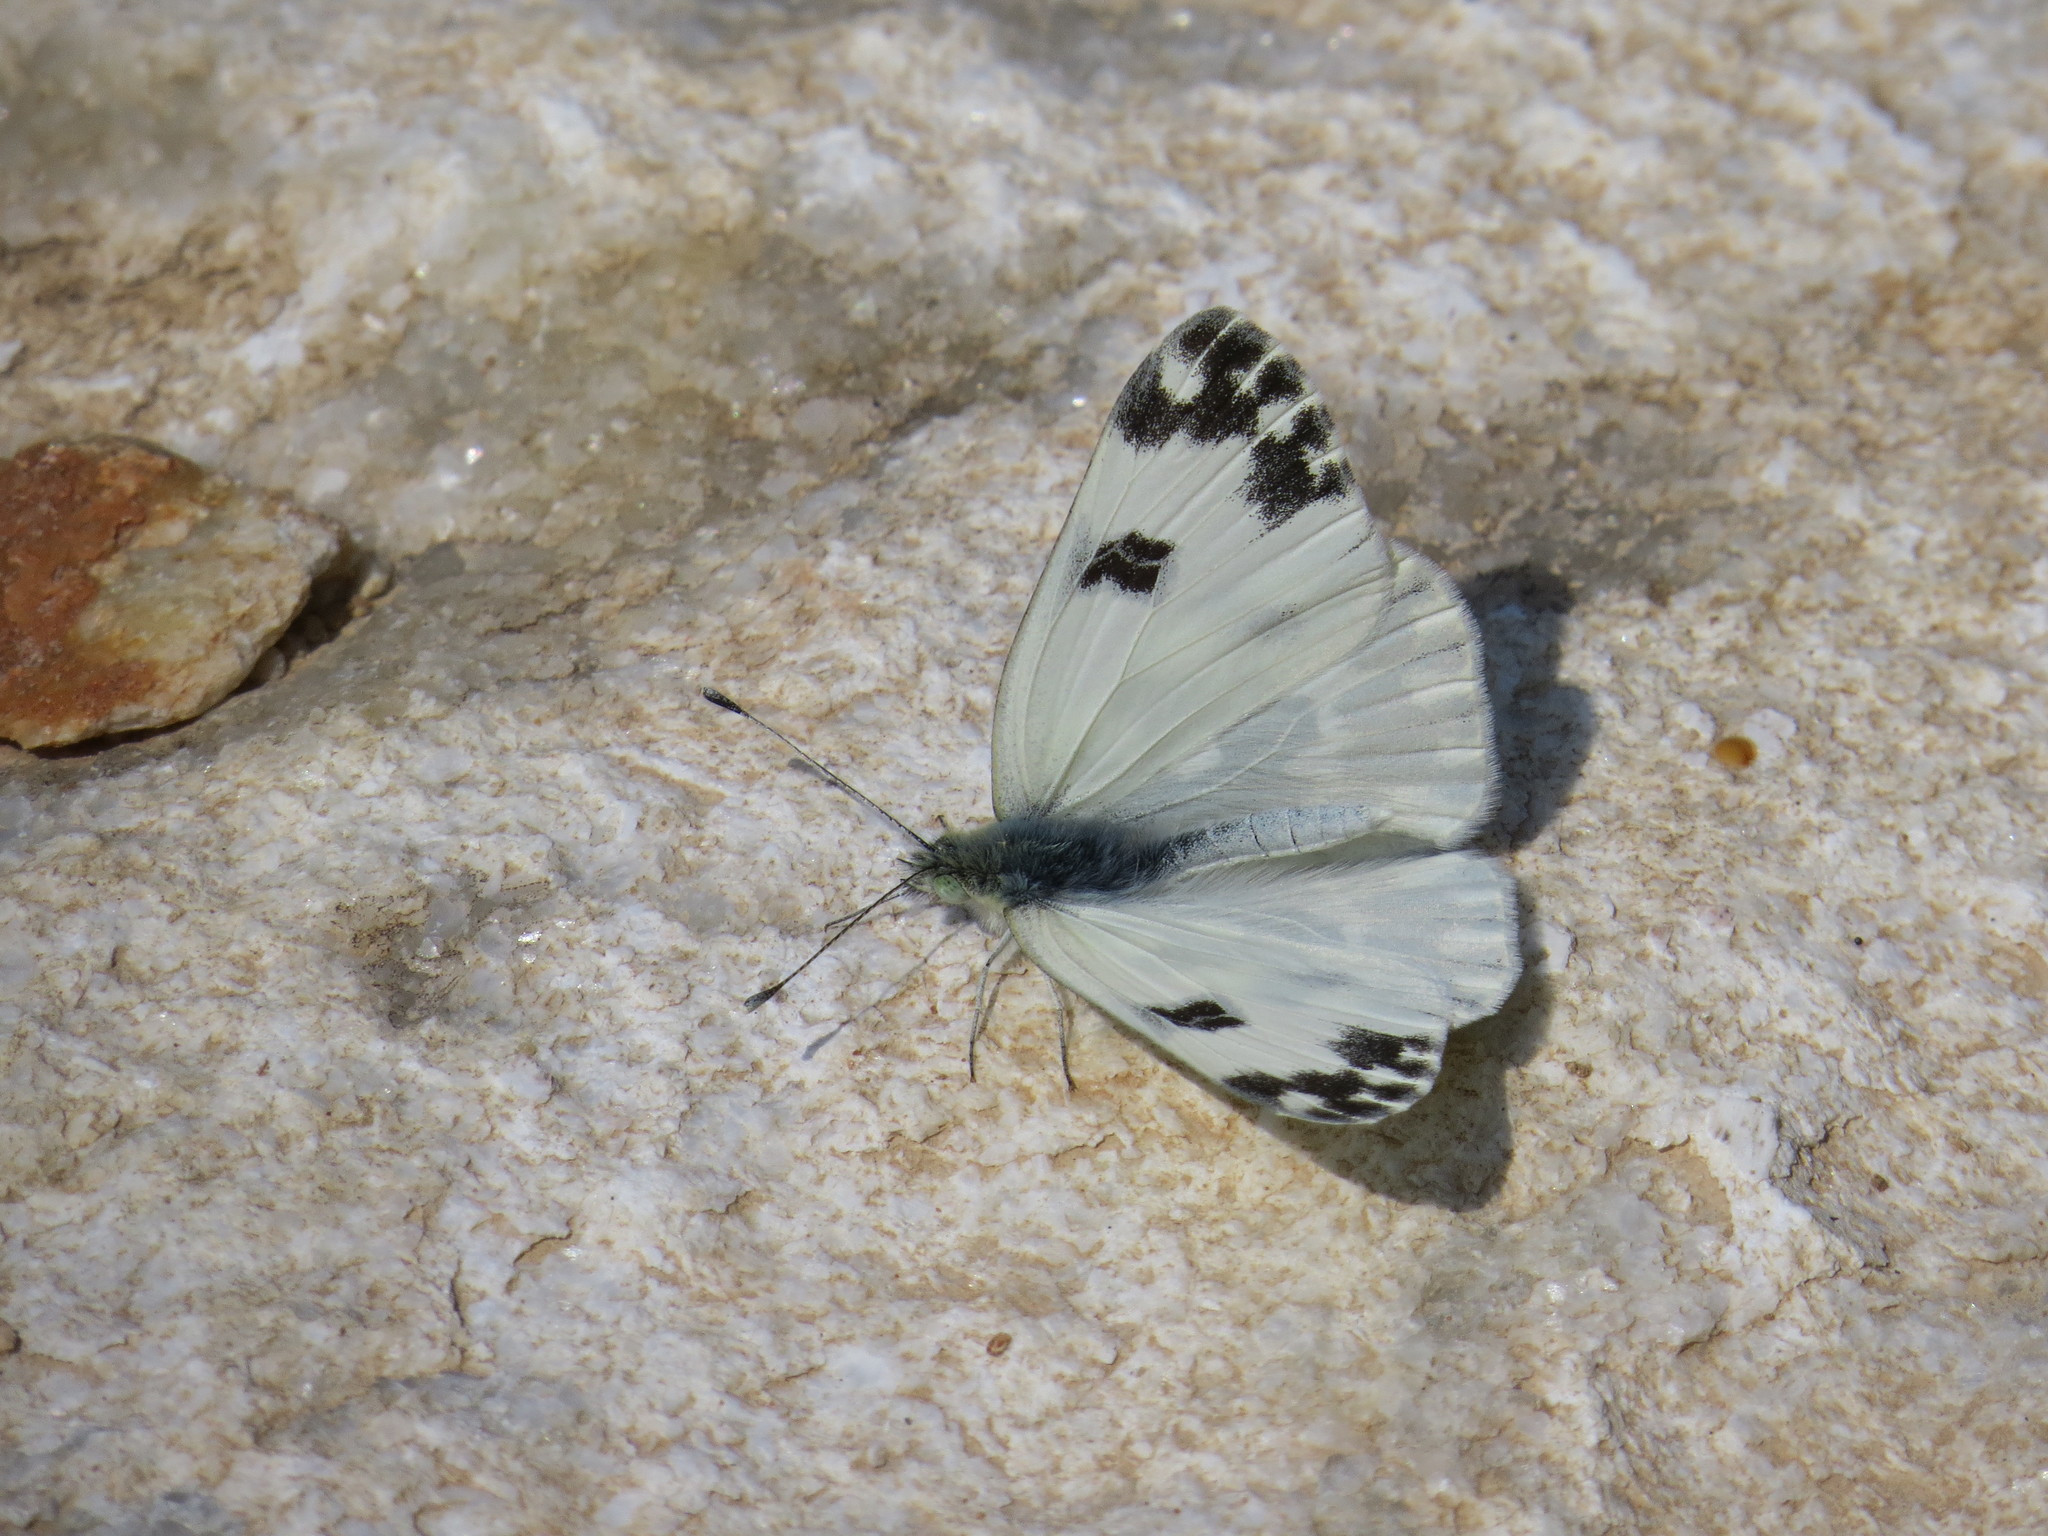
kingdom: Animalia
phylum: Arthropoda
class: Insecta
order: Lepidoptera
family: Pieridae
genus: Pontia
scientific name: Pontia edusa
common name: Eastern bath white
